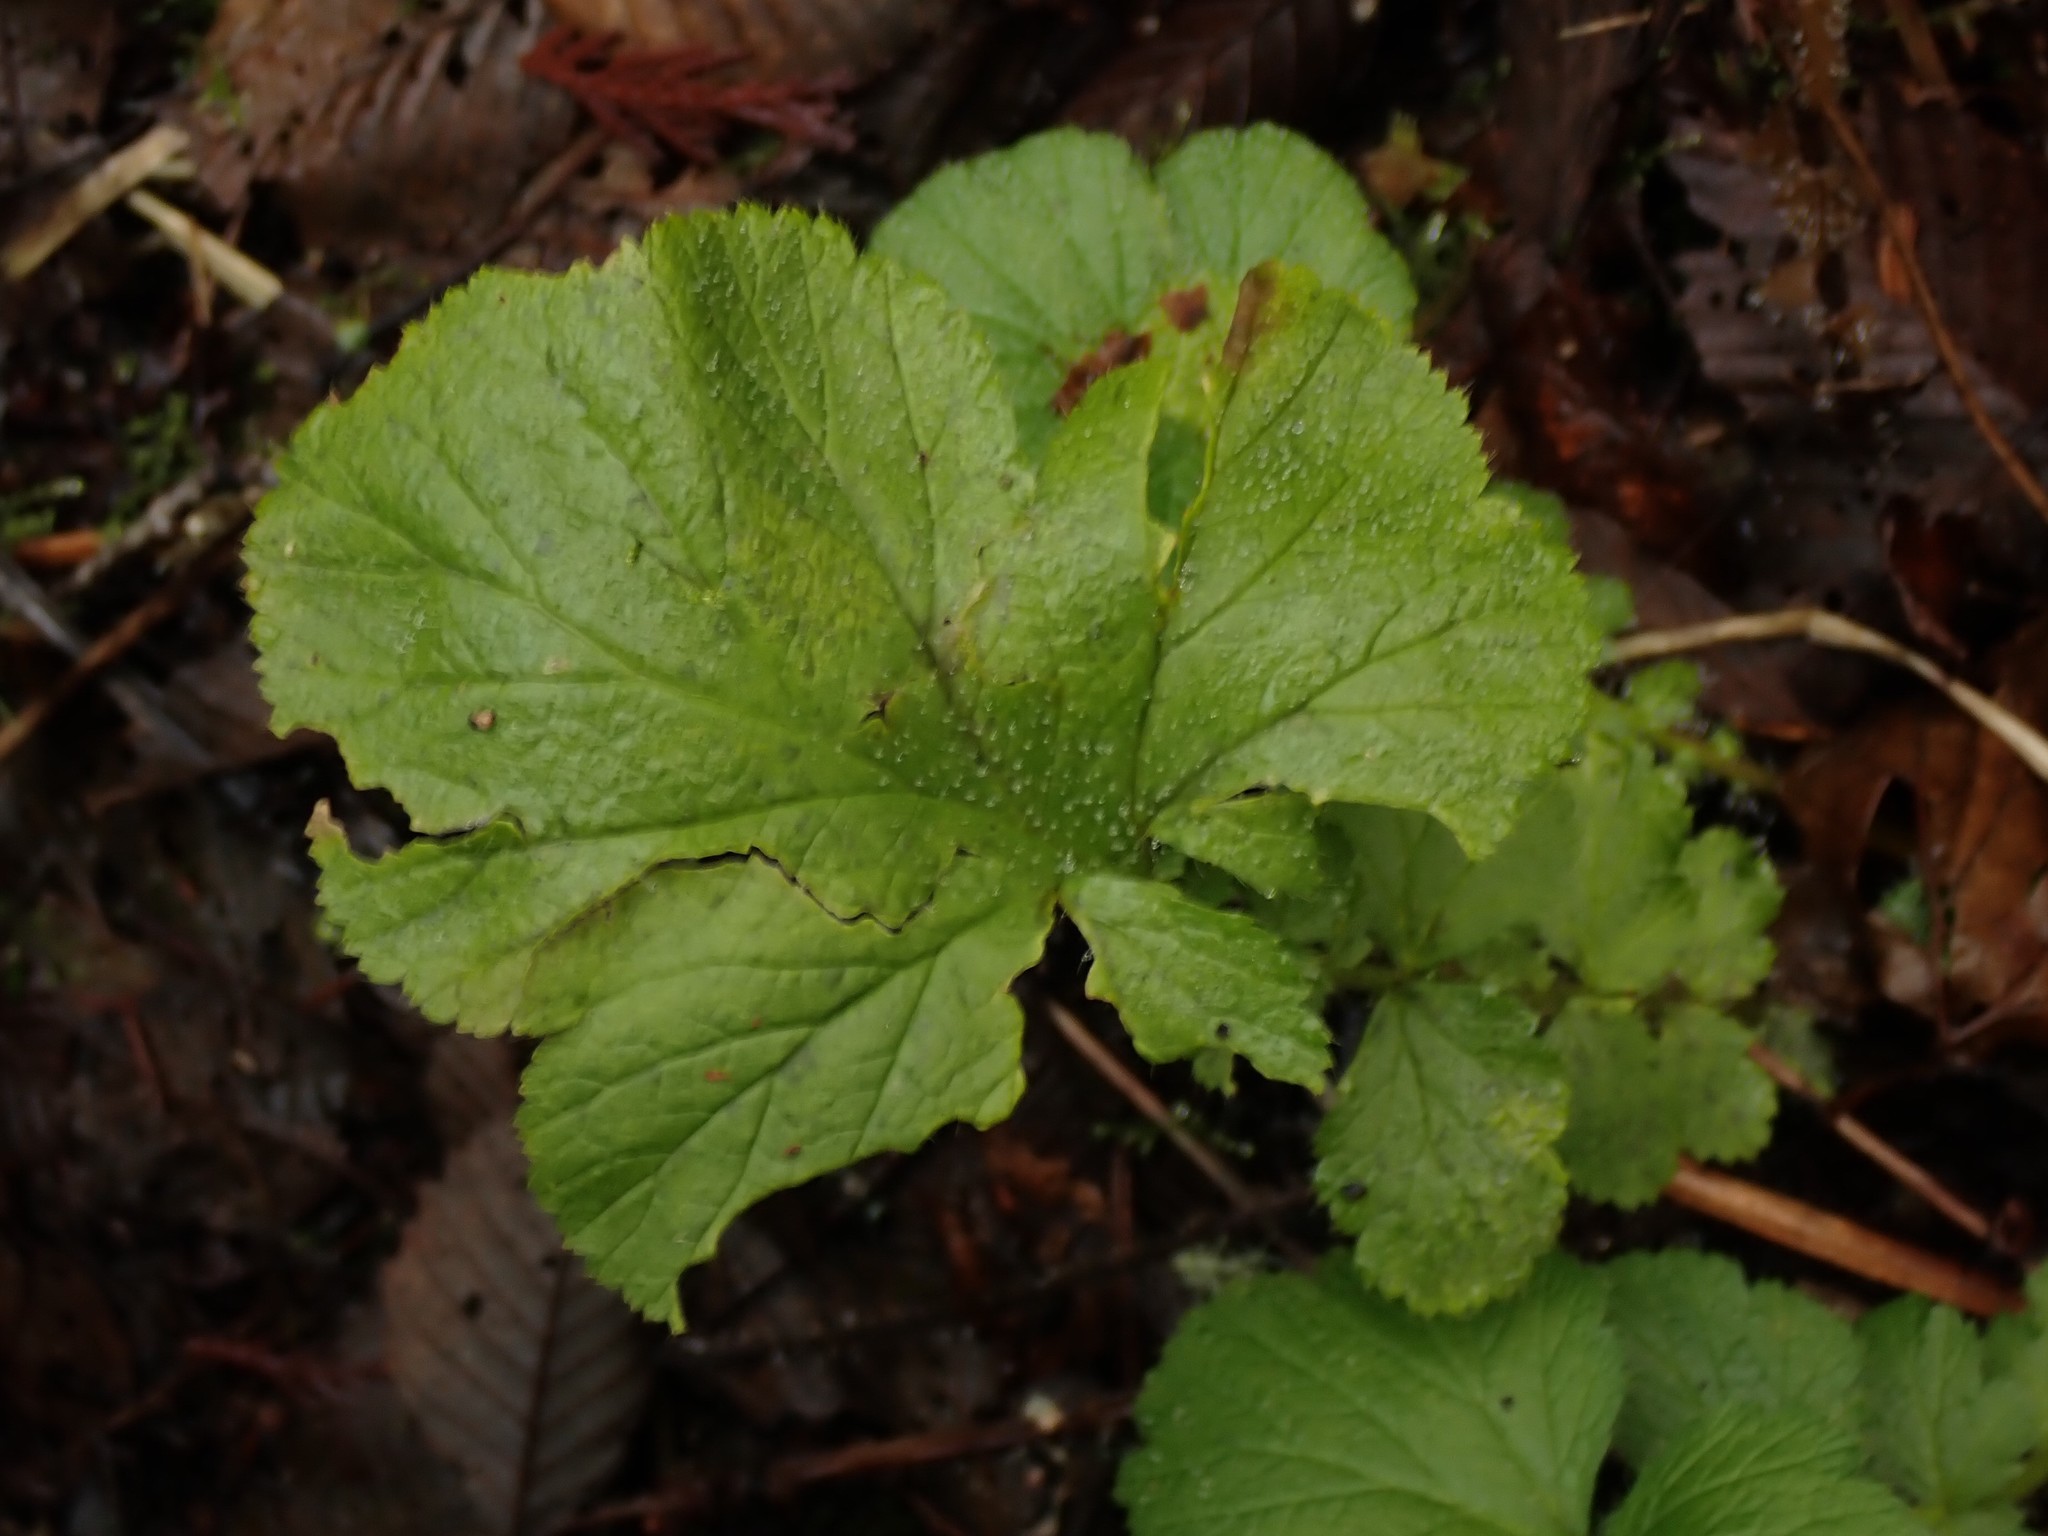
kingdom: Plantae
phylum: Tracheophyta
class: Magnoliopsida
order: Rosales
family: Rosaceae
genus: Geum
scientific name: Geum macrophyllum
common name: Large-leaved avens
